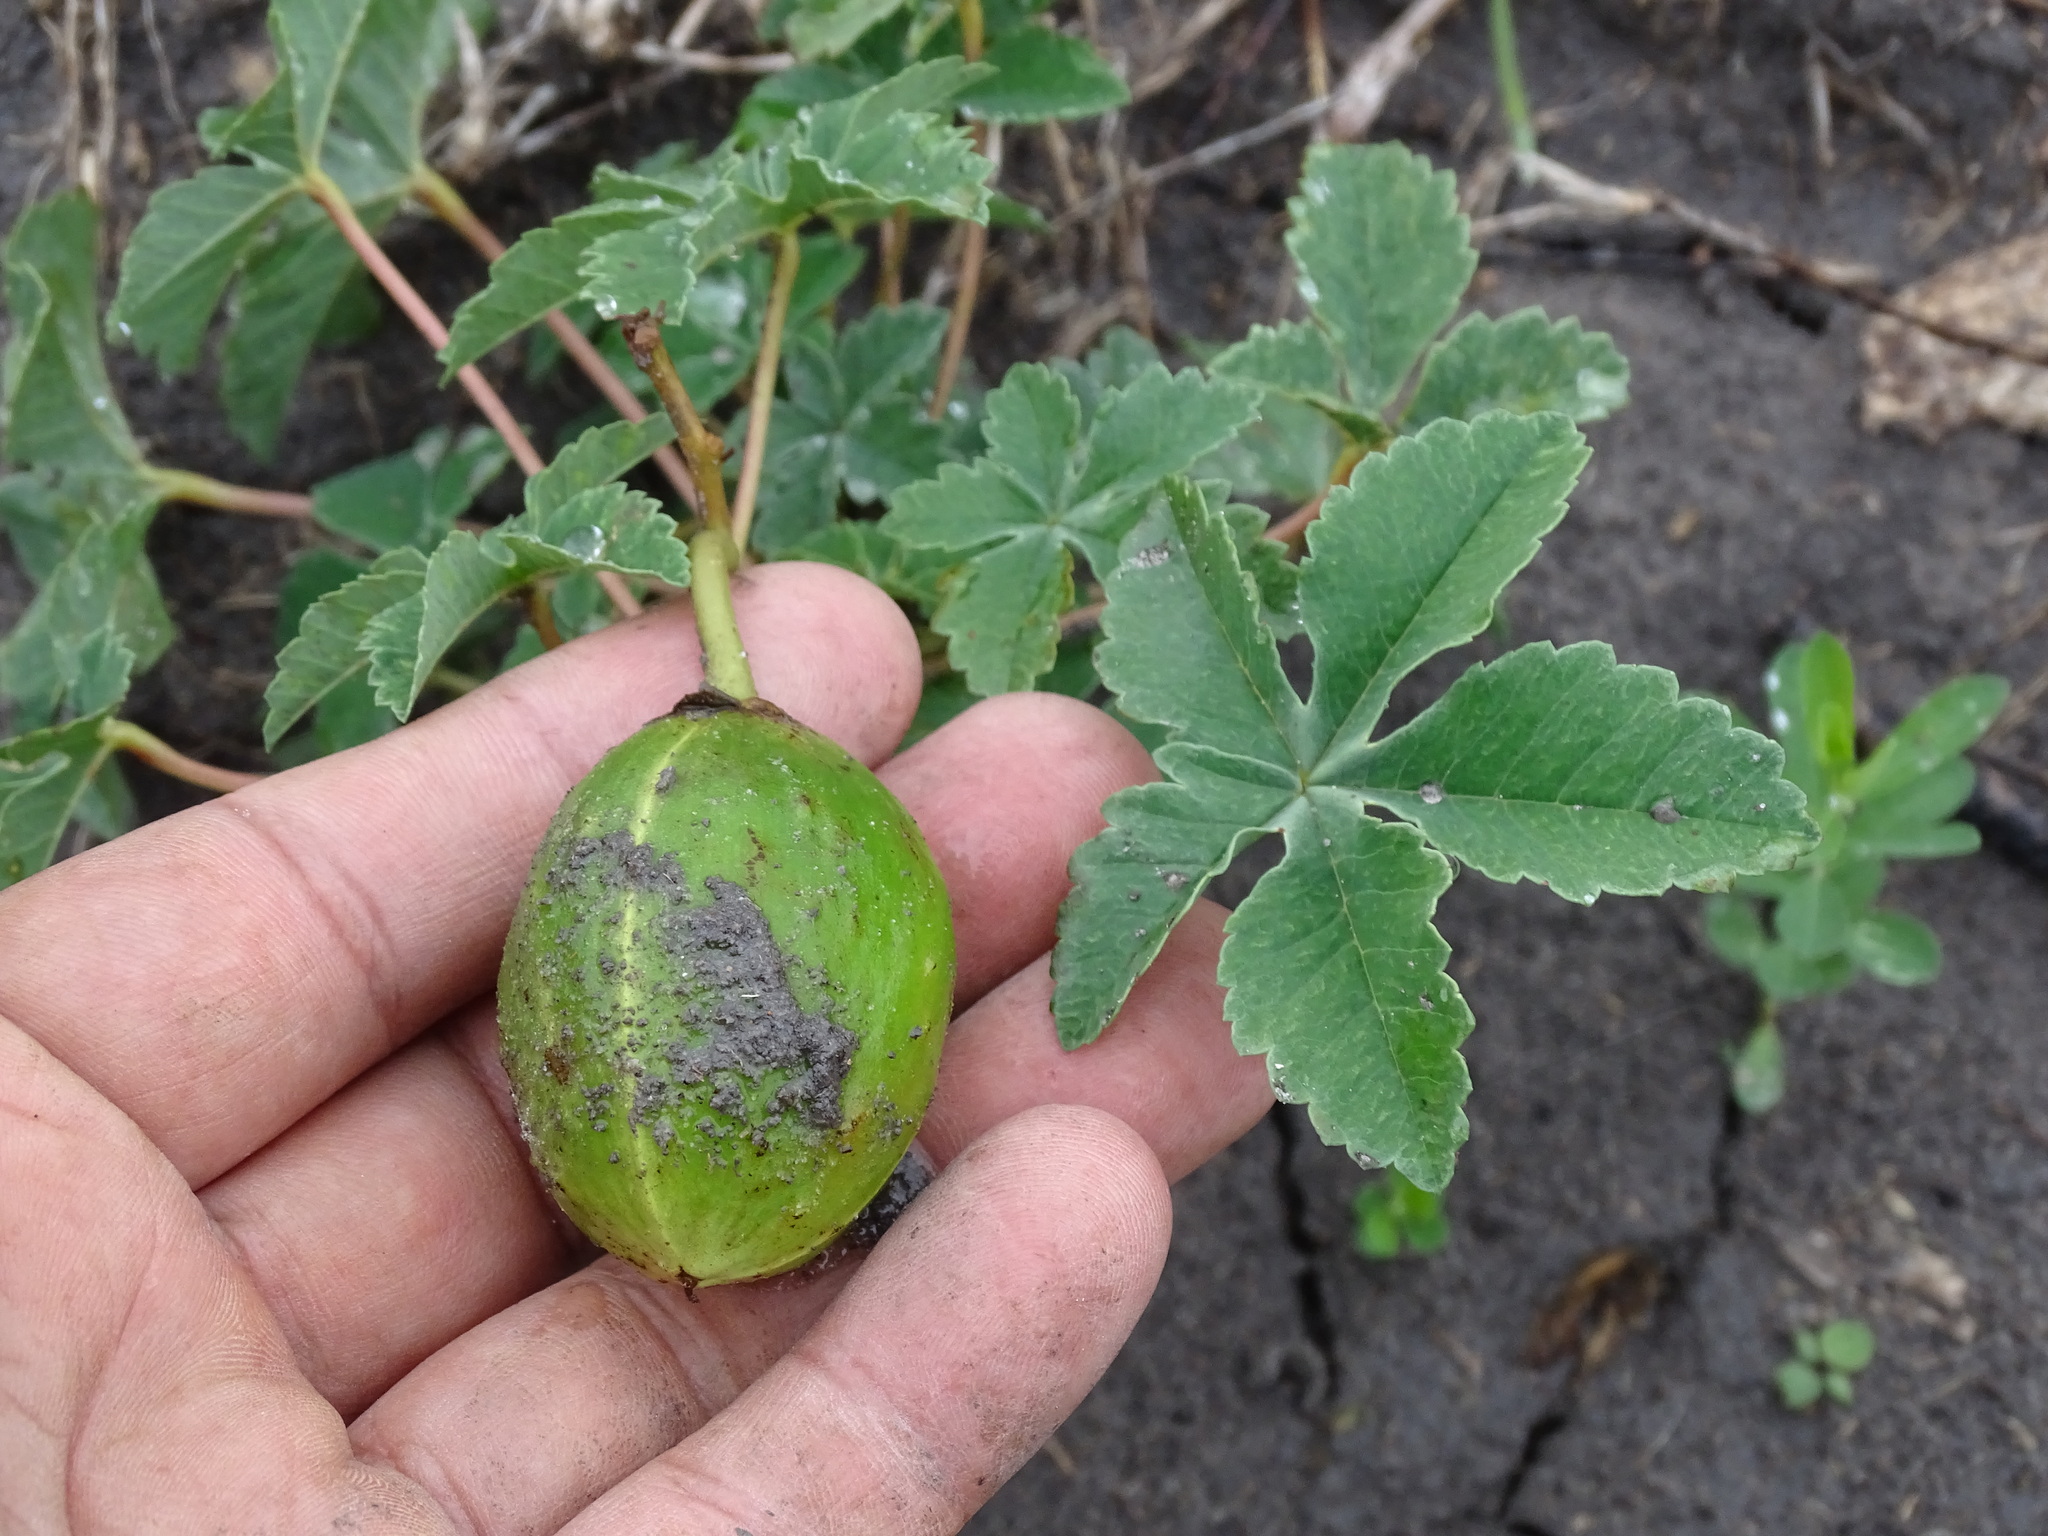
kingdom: Plantae
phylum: Tracheophyta
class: Magnoliopsida
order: Malvales
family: Cochlospermaceae
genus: Cochlospermum
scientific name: Cochlospermum wrightii
